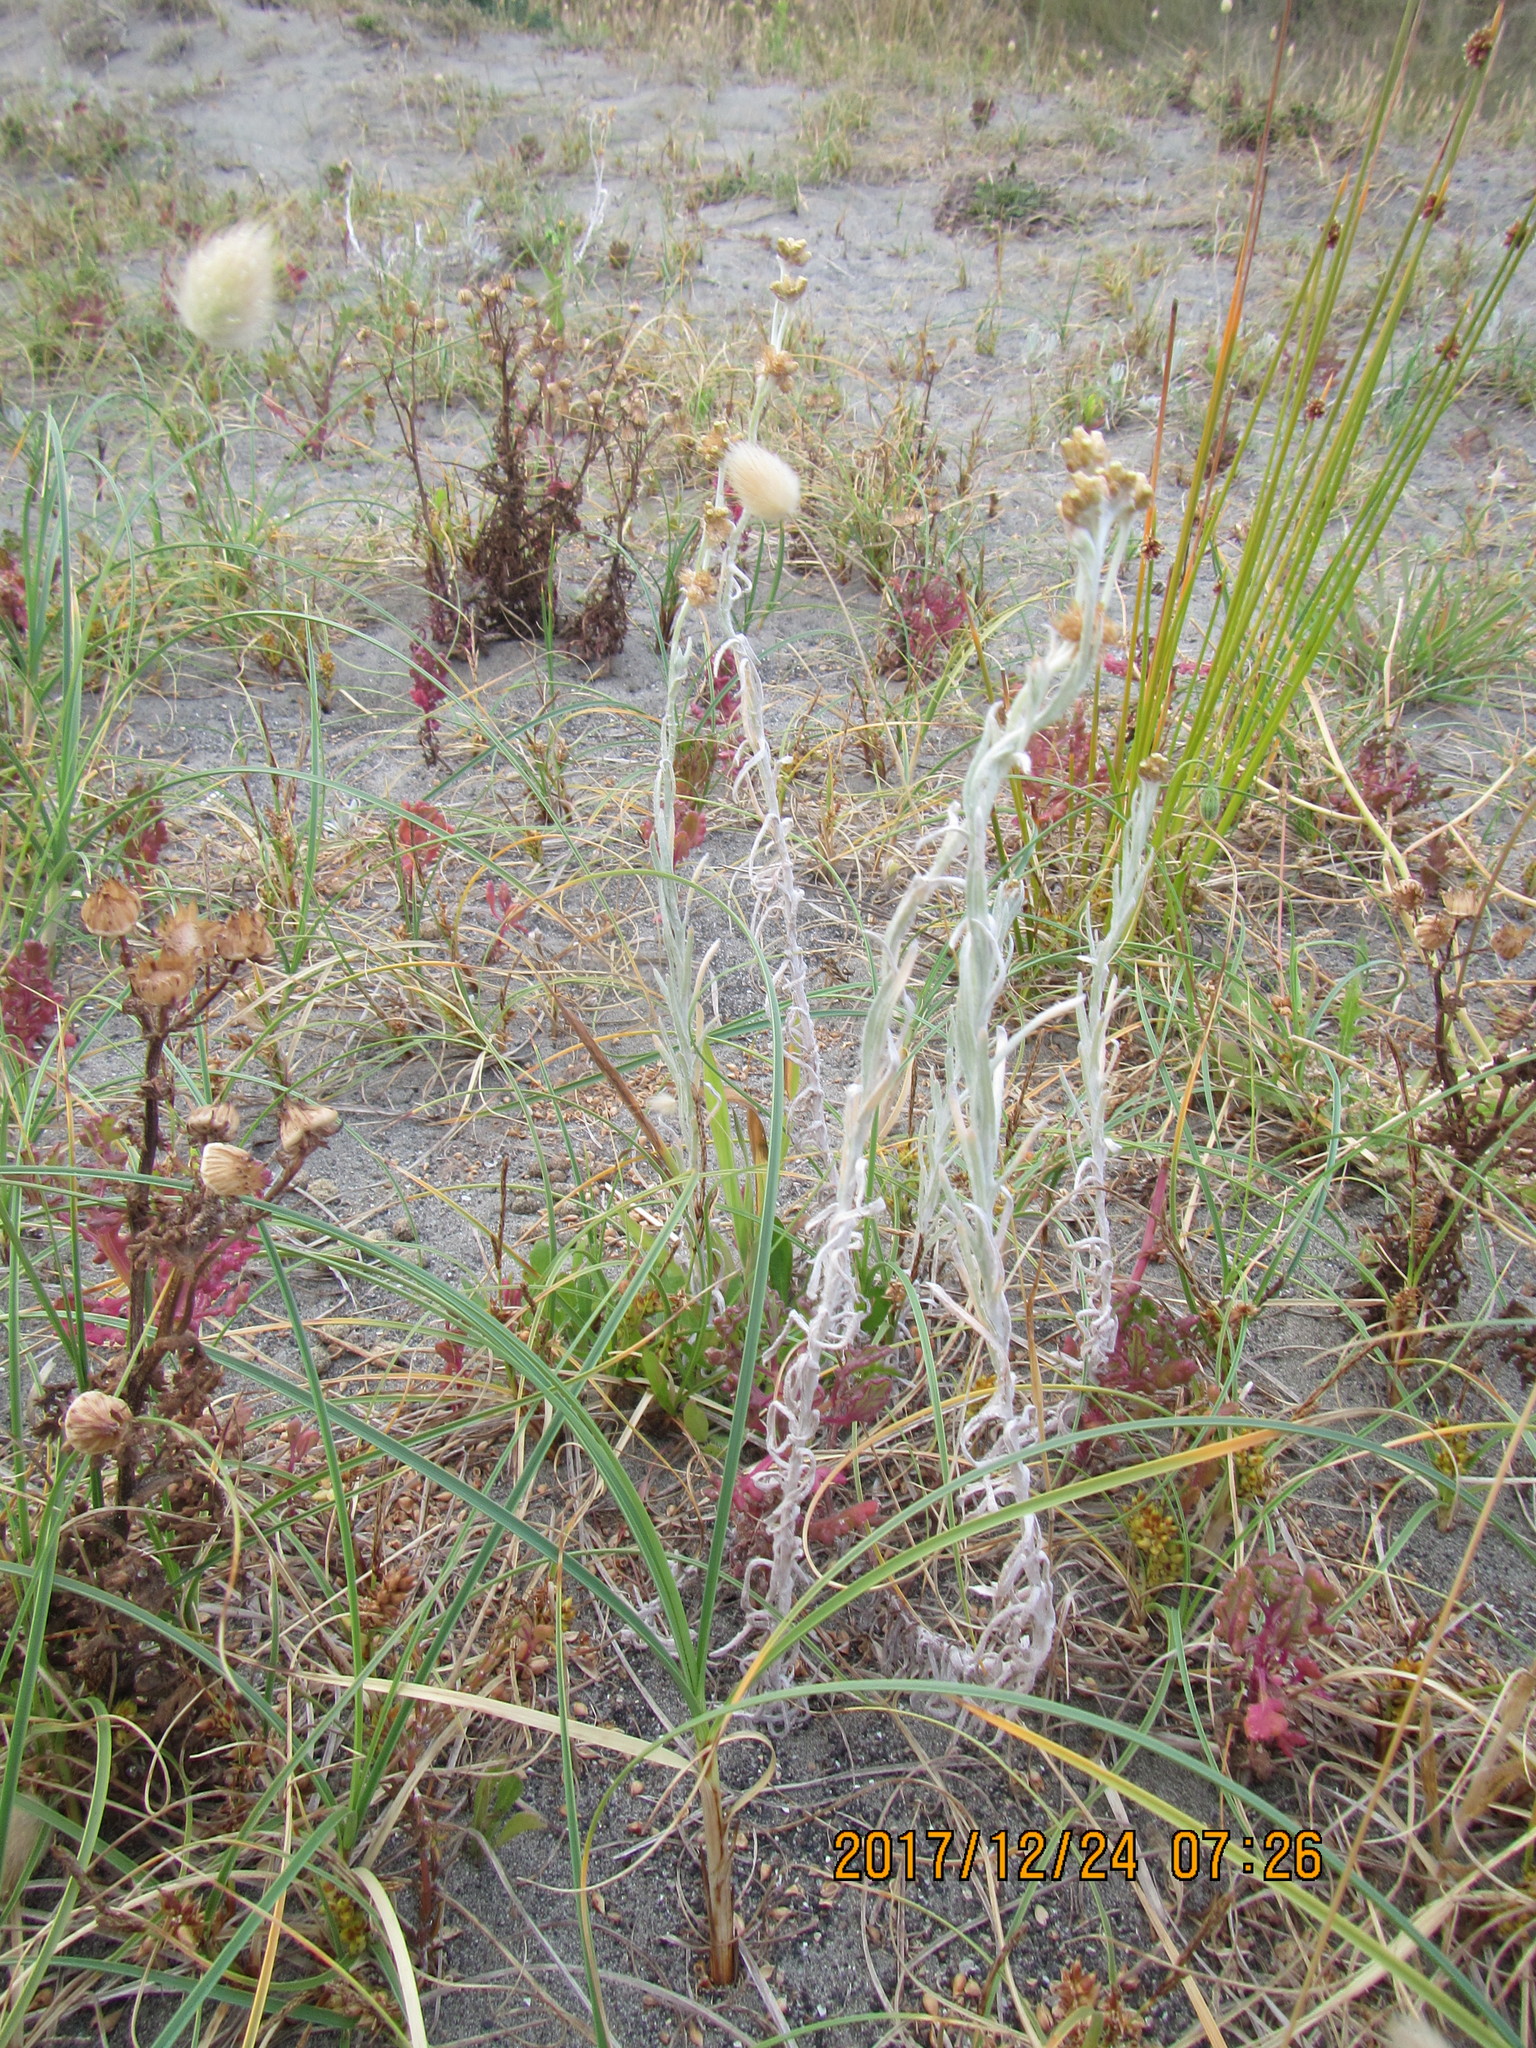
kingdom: Plantae
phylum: Tracheophyta
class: Magnoliopsida
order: Asterales
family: Asteraceae
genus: Helichrysum
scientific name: Helichrysum luteoalbum
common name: Daisy
